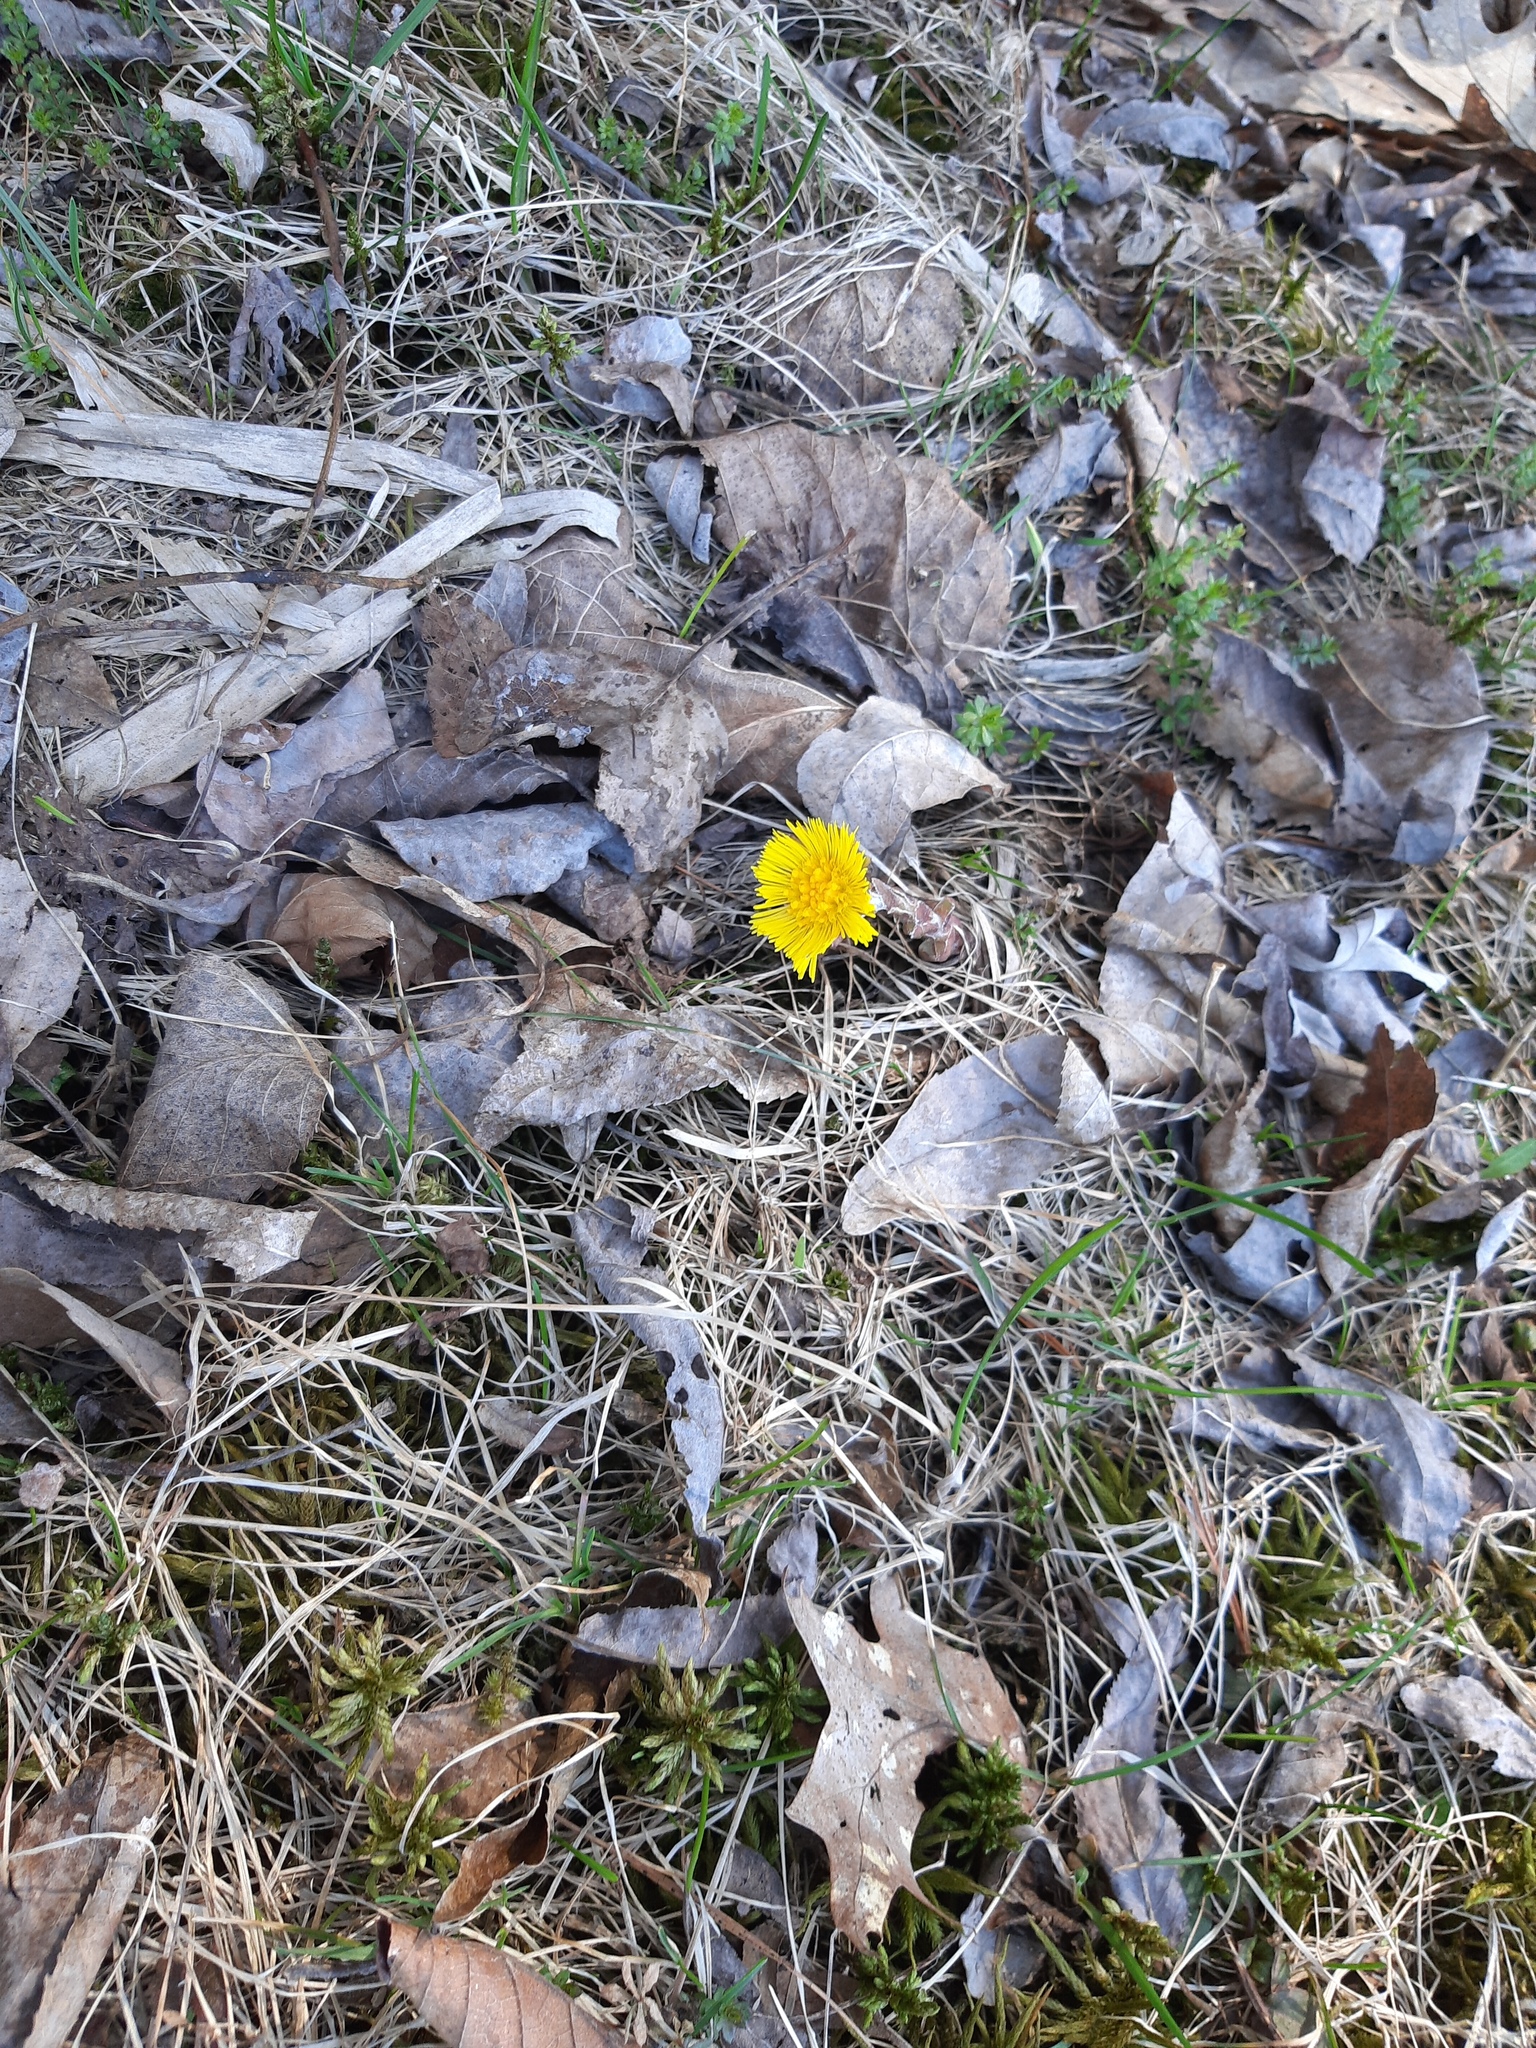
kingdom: Plantae
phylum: Tracheophyta
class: Magnoliopsida
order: Asterales
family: Asteraceae
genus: Tussilago
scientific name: Tussilago farfara
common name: Coltsfoot
